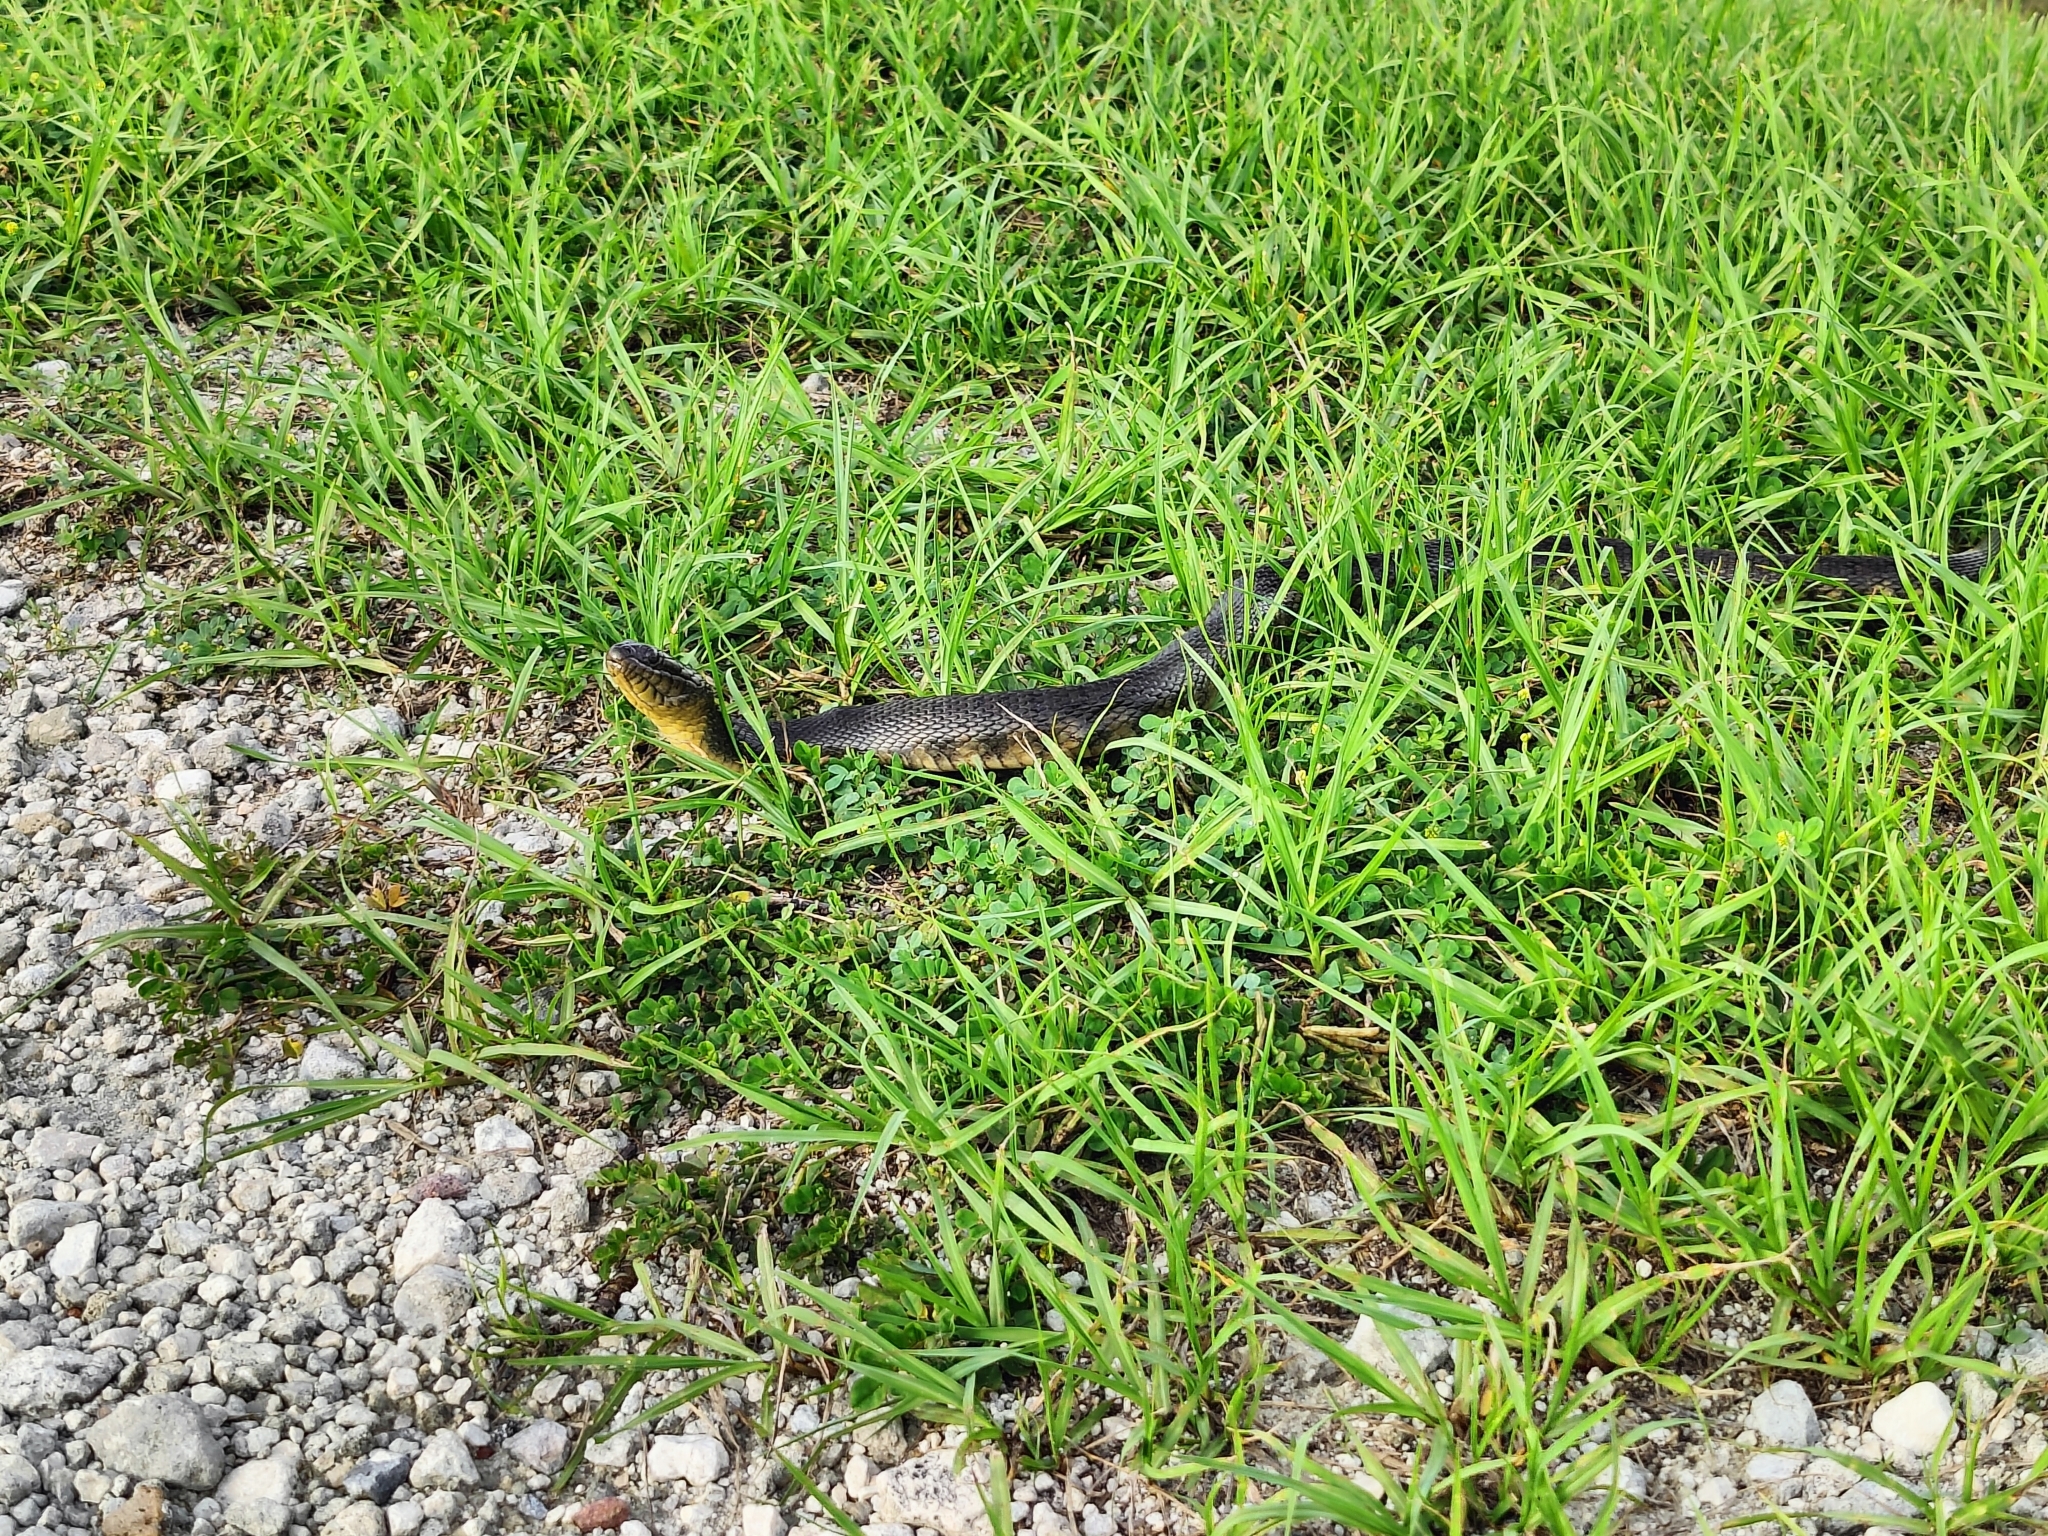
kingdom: Animalia
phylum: Chordata
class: Squamata
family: Colubridae
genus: Nerodia
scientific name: Nerodia floridana
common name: Florida green watersnake
